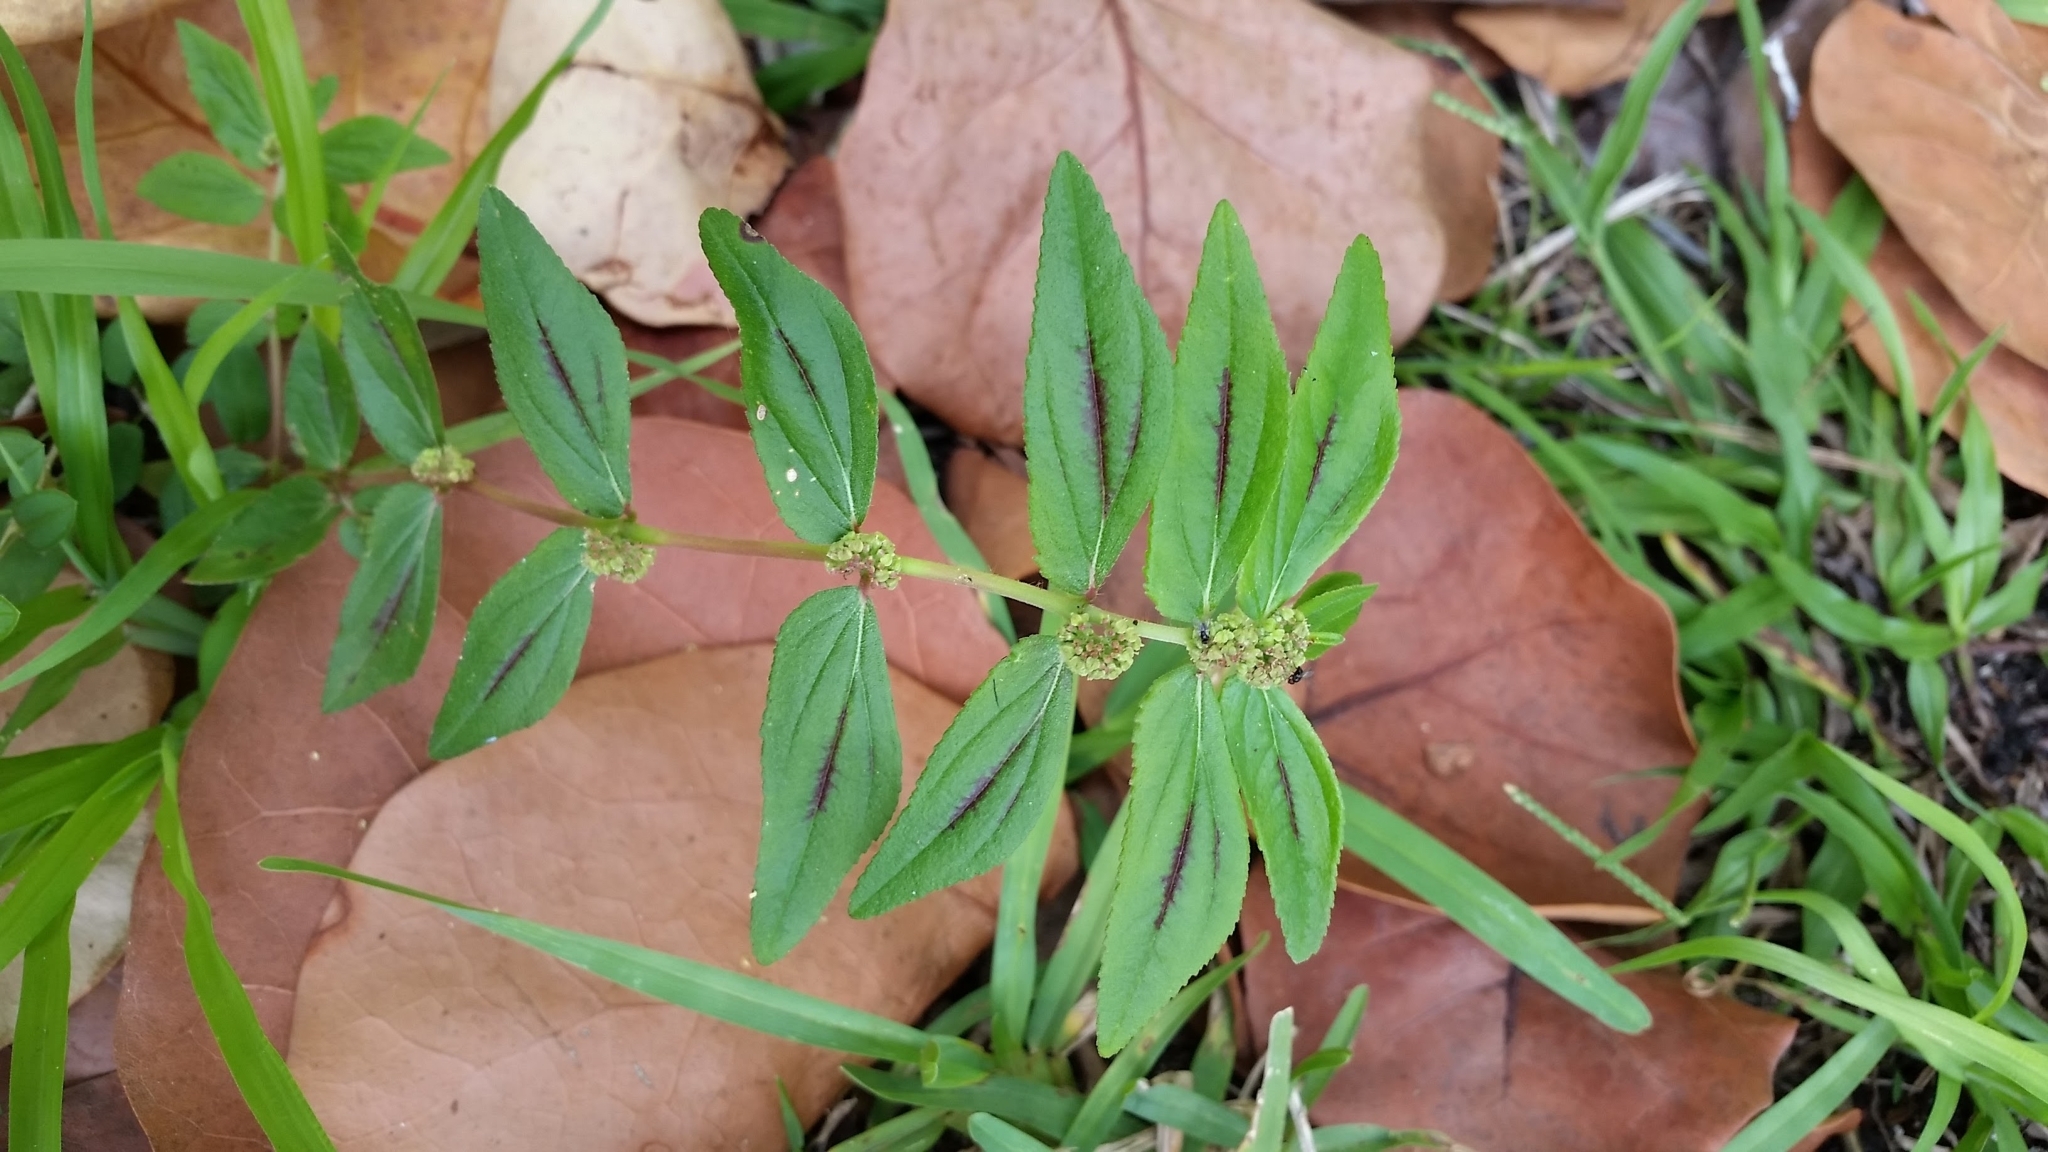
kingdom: Plantae
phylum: Tracheophyta
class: Magnoliopsida
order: Malpighiales
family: Euphorbiaceae
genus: Euphorbia
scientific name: Euphorbia hirta
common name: Pillpod sandmat
